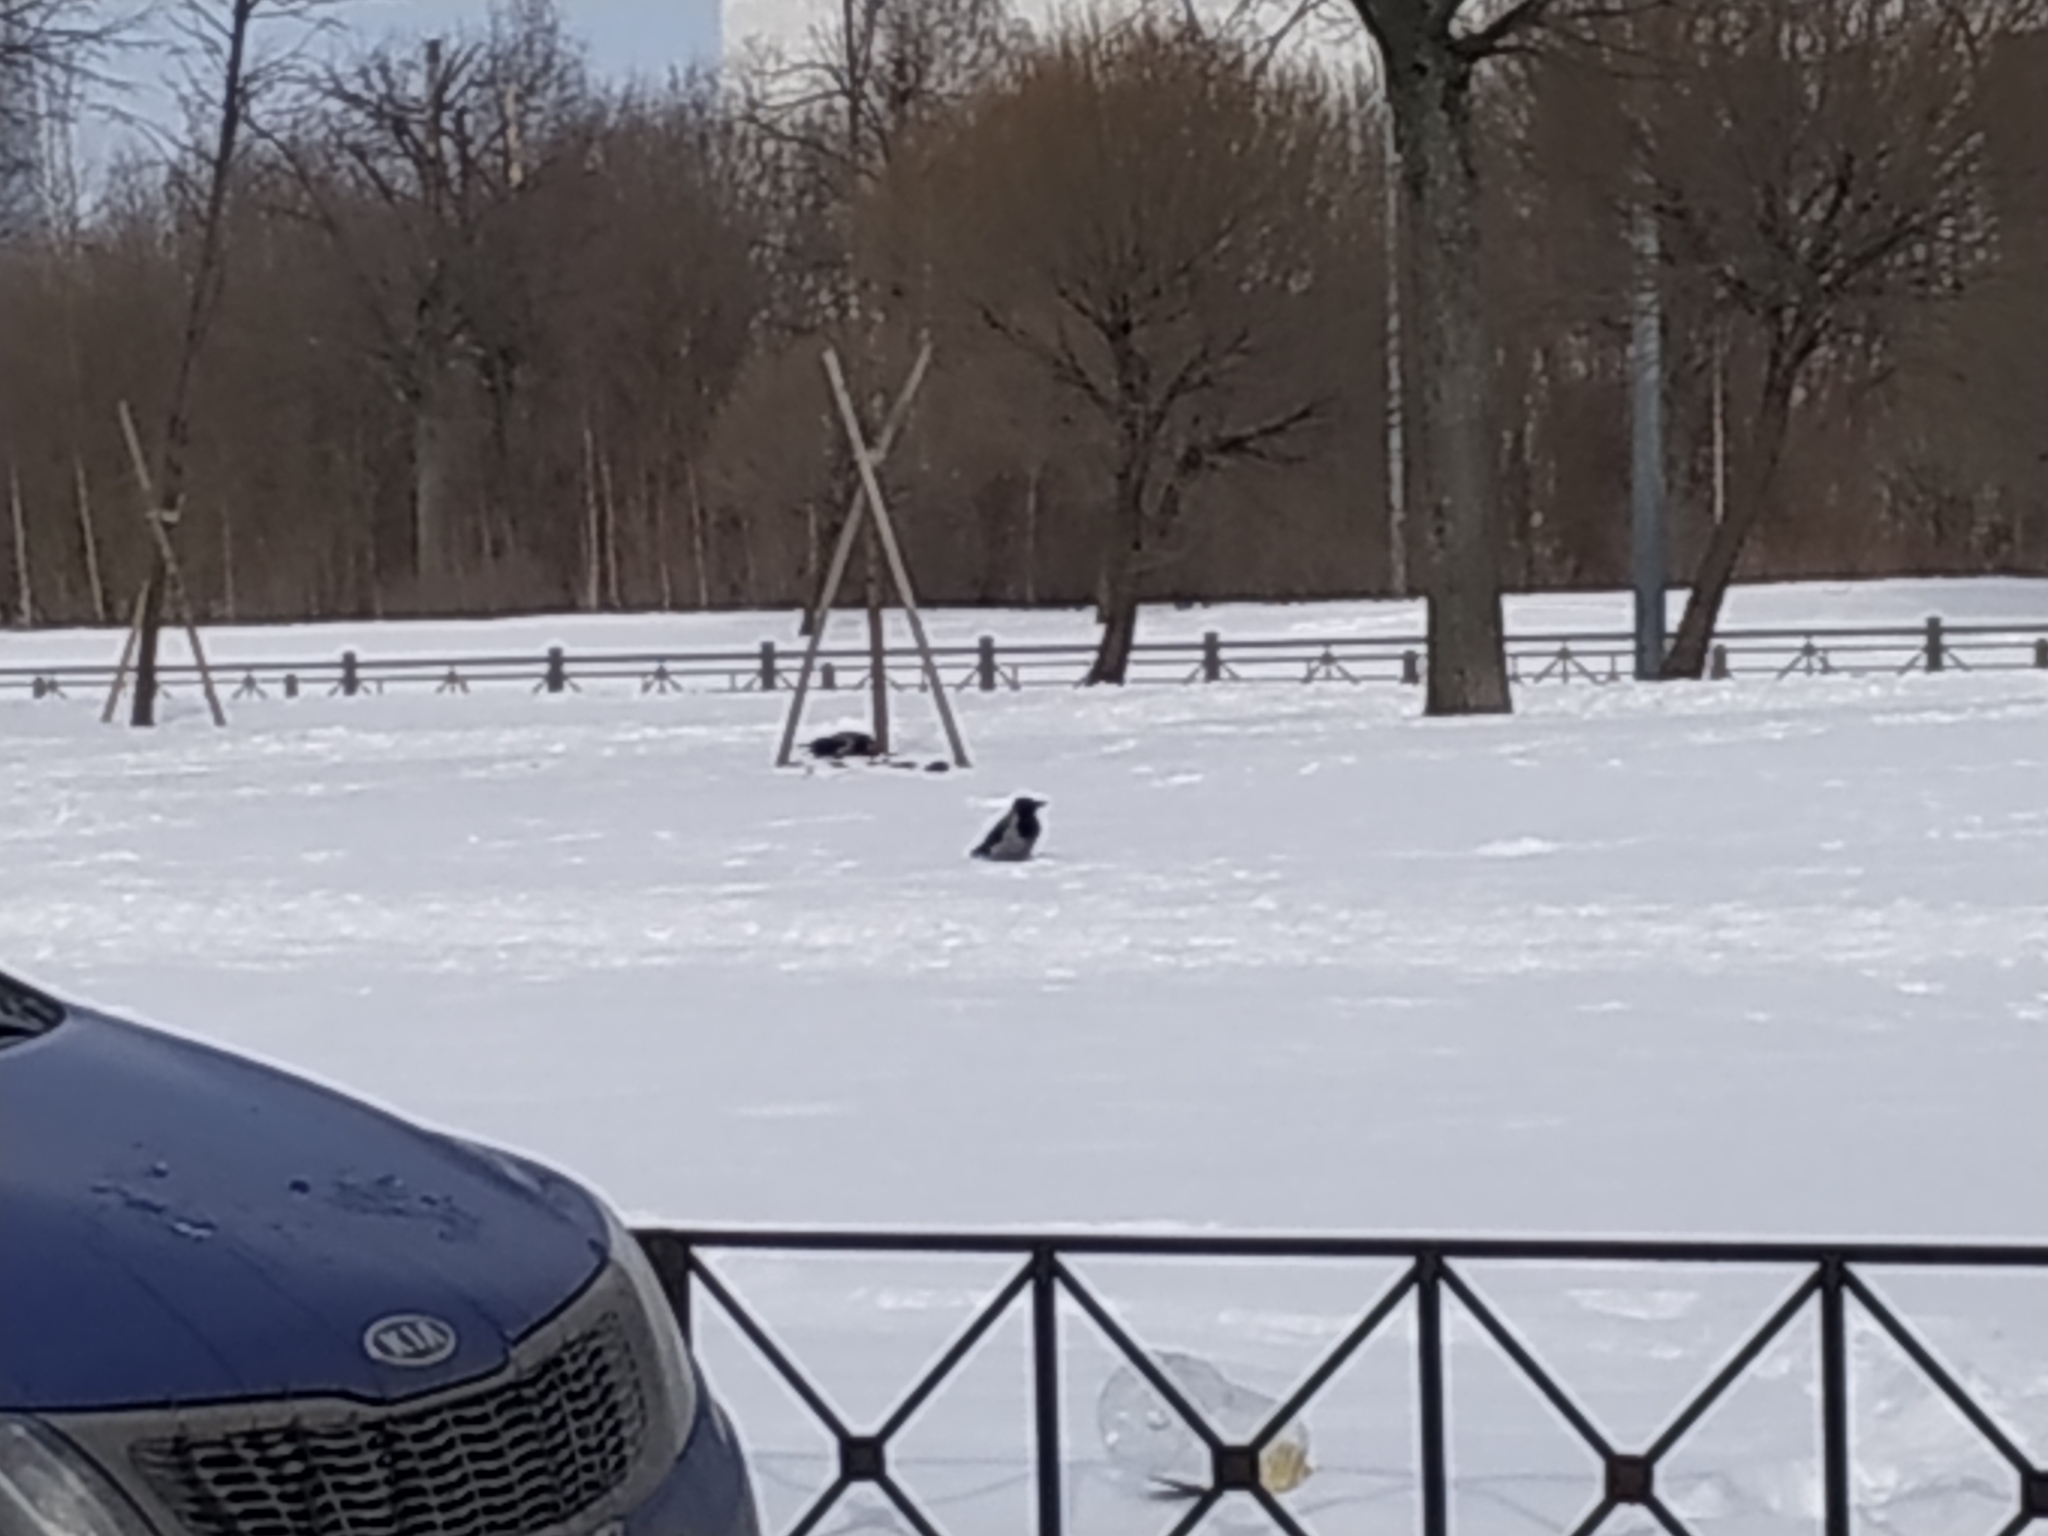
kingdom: Animalia
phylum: Chordata
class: Aves
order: Passeriformes
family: Corvidae
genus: Corvus
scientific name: Corvus cornix
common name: Hooded crow
